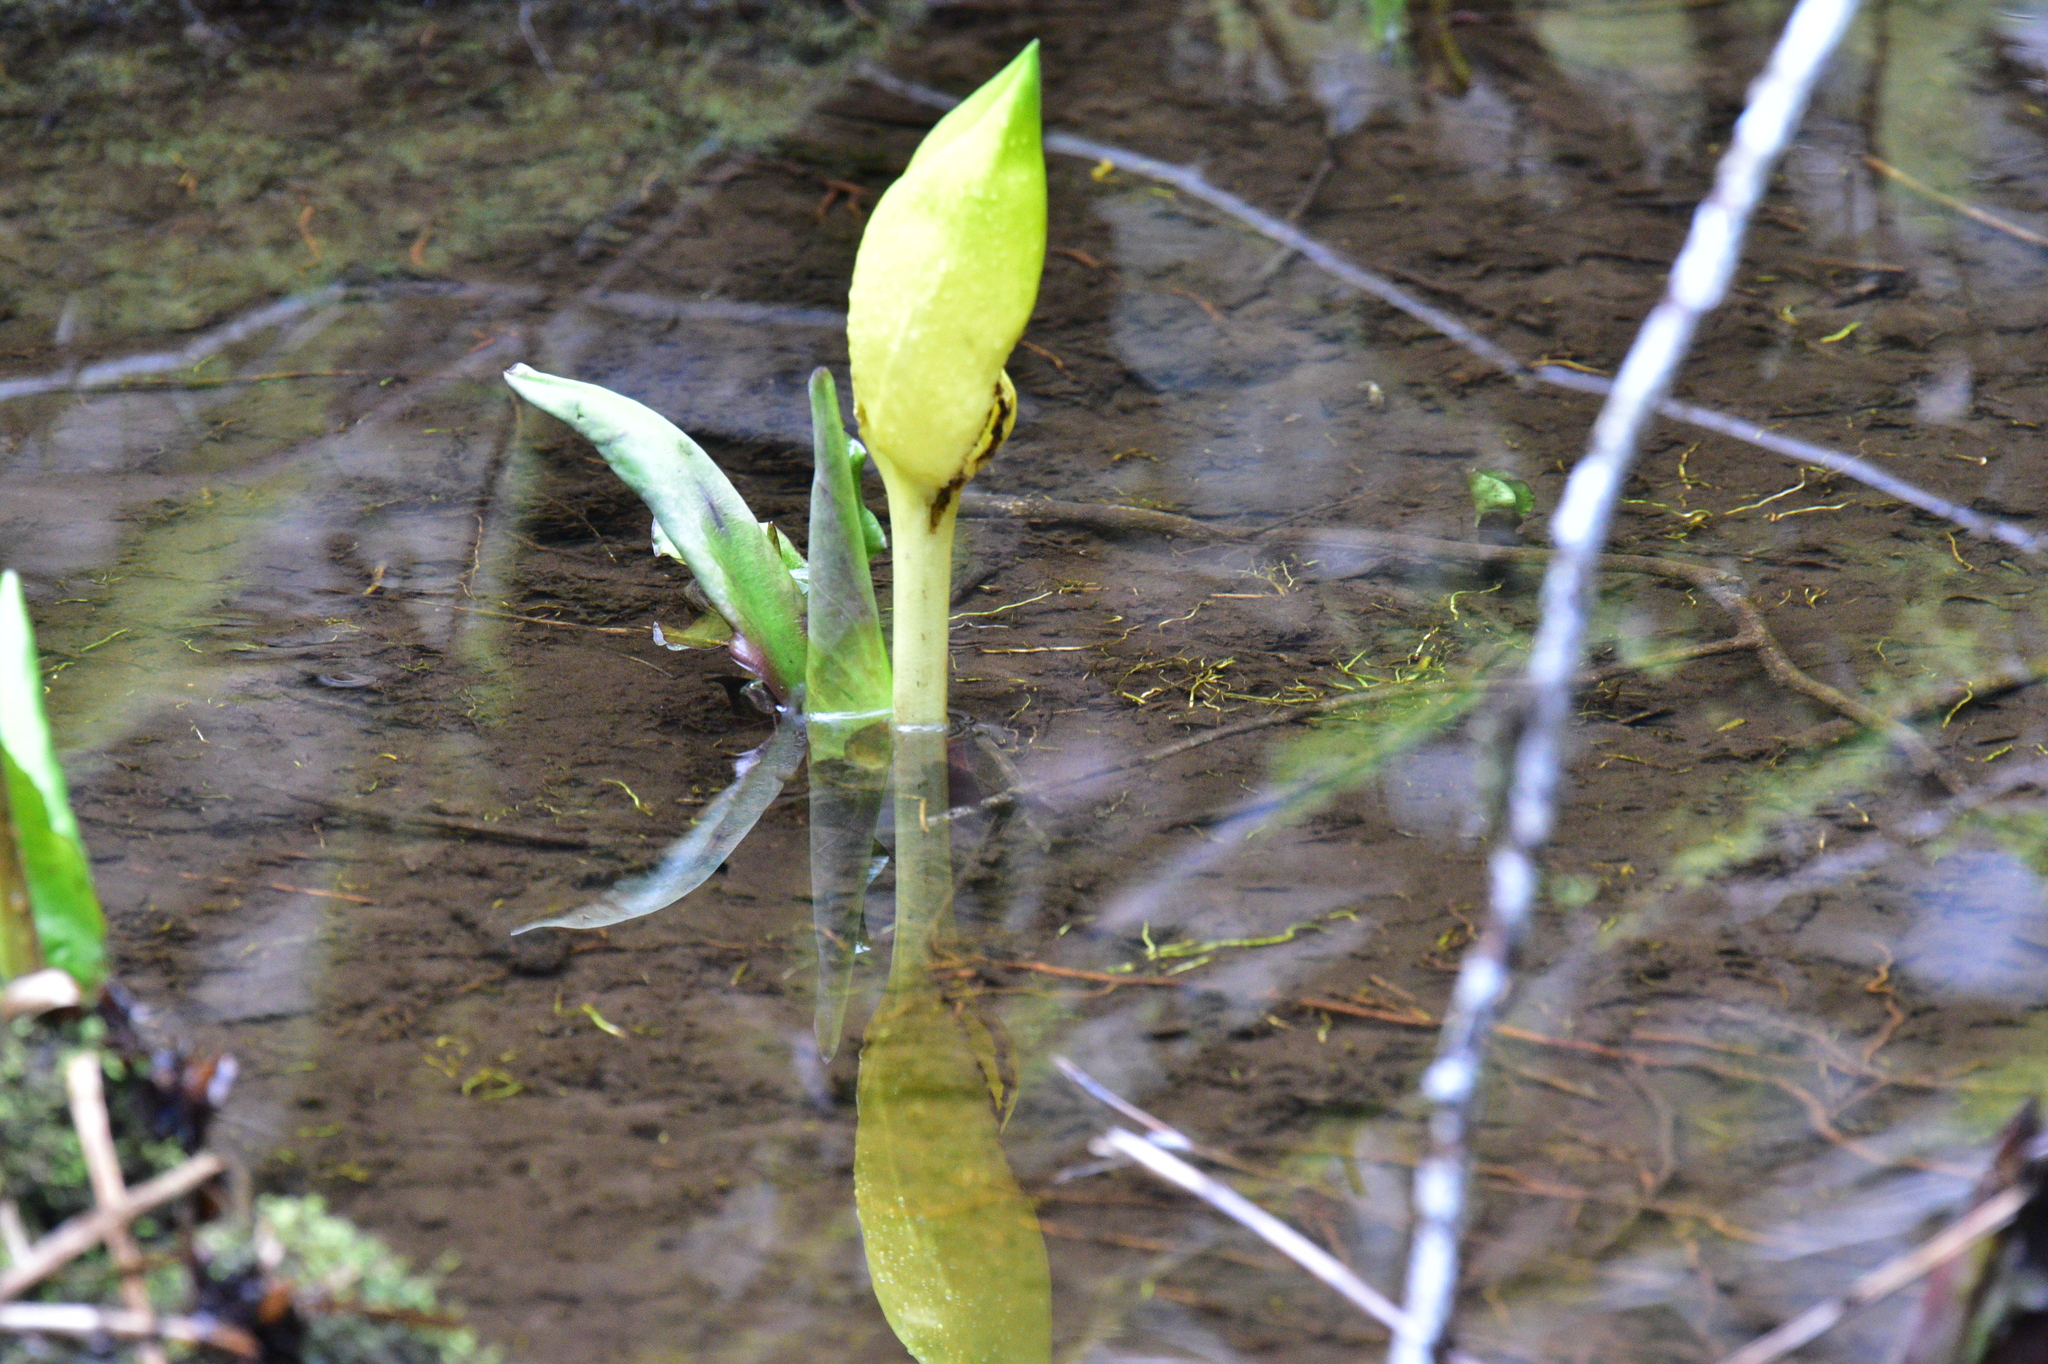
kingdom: Plantae
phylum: Tracheophyta
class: Liliopsida
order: Alismatales
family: Araceae
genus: Lysichiton
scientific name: Lysichiton americanus
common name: American skunk cabbage
